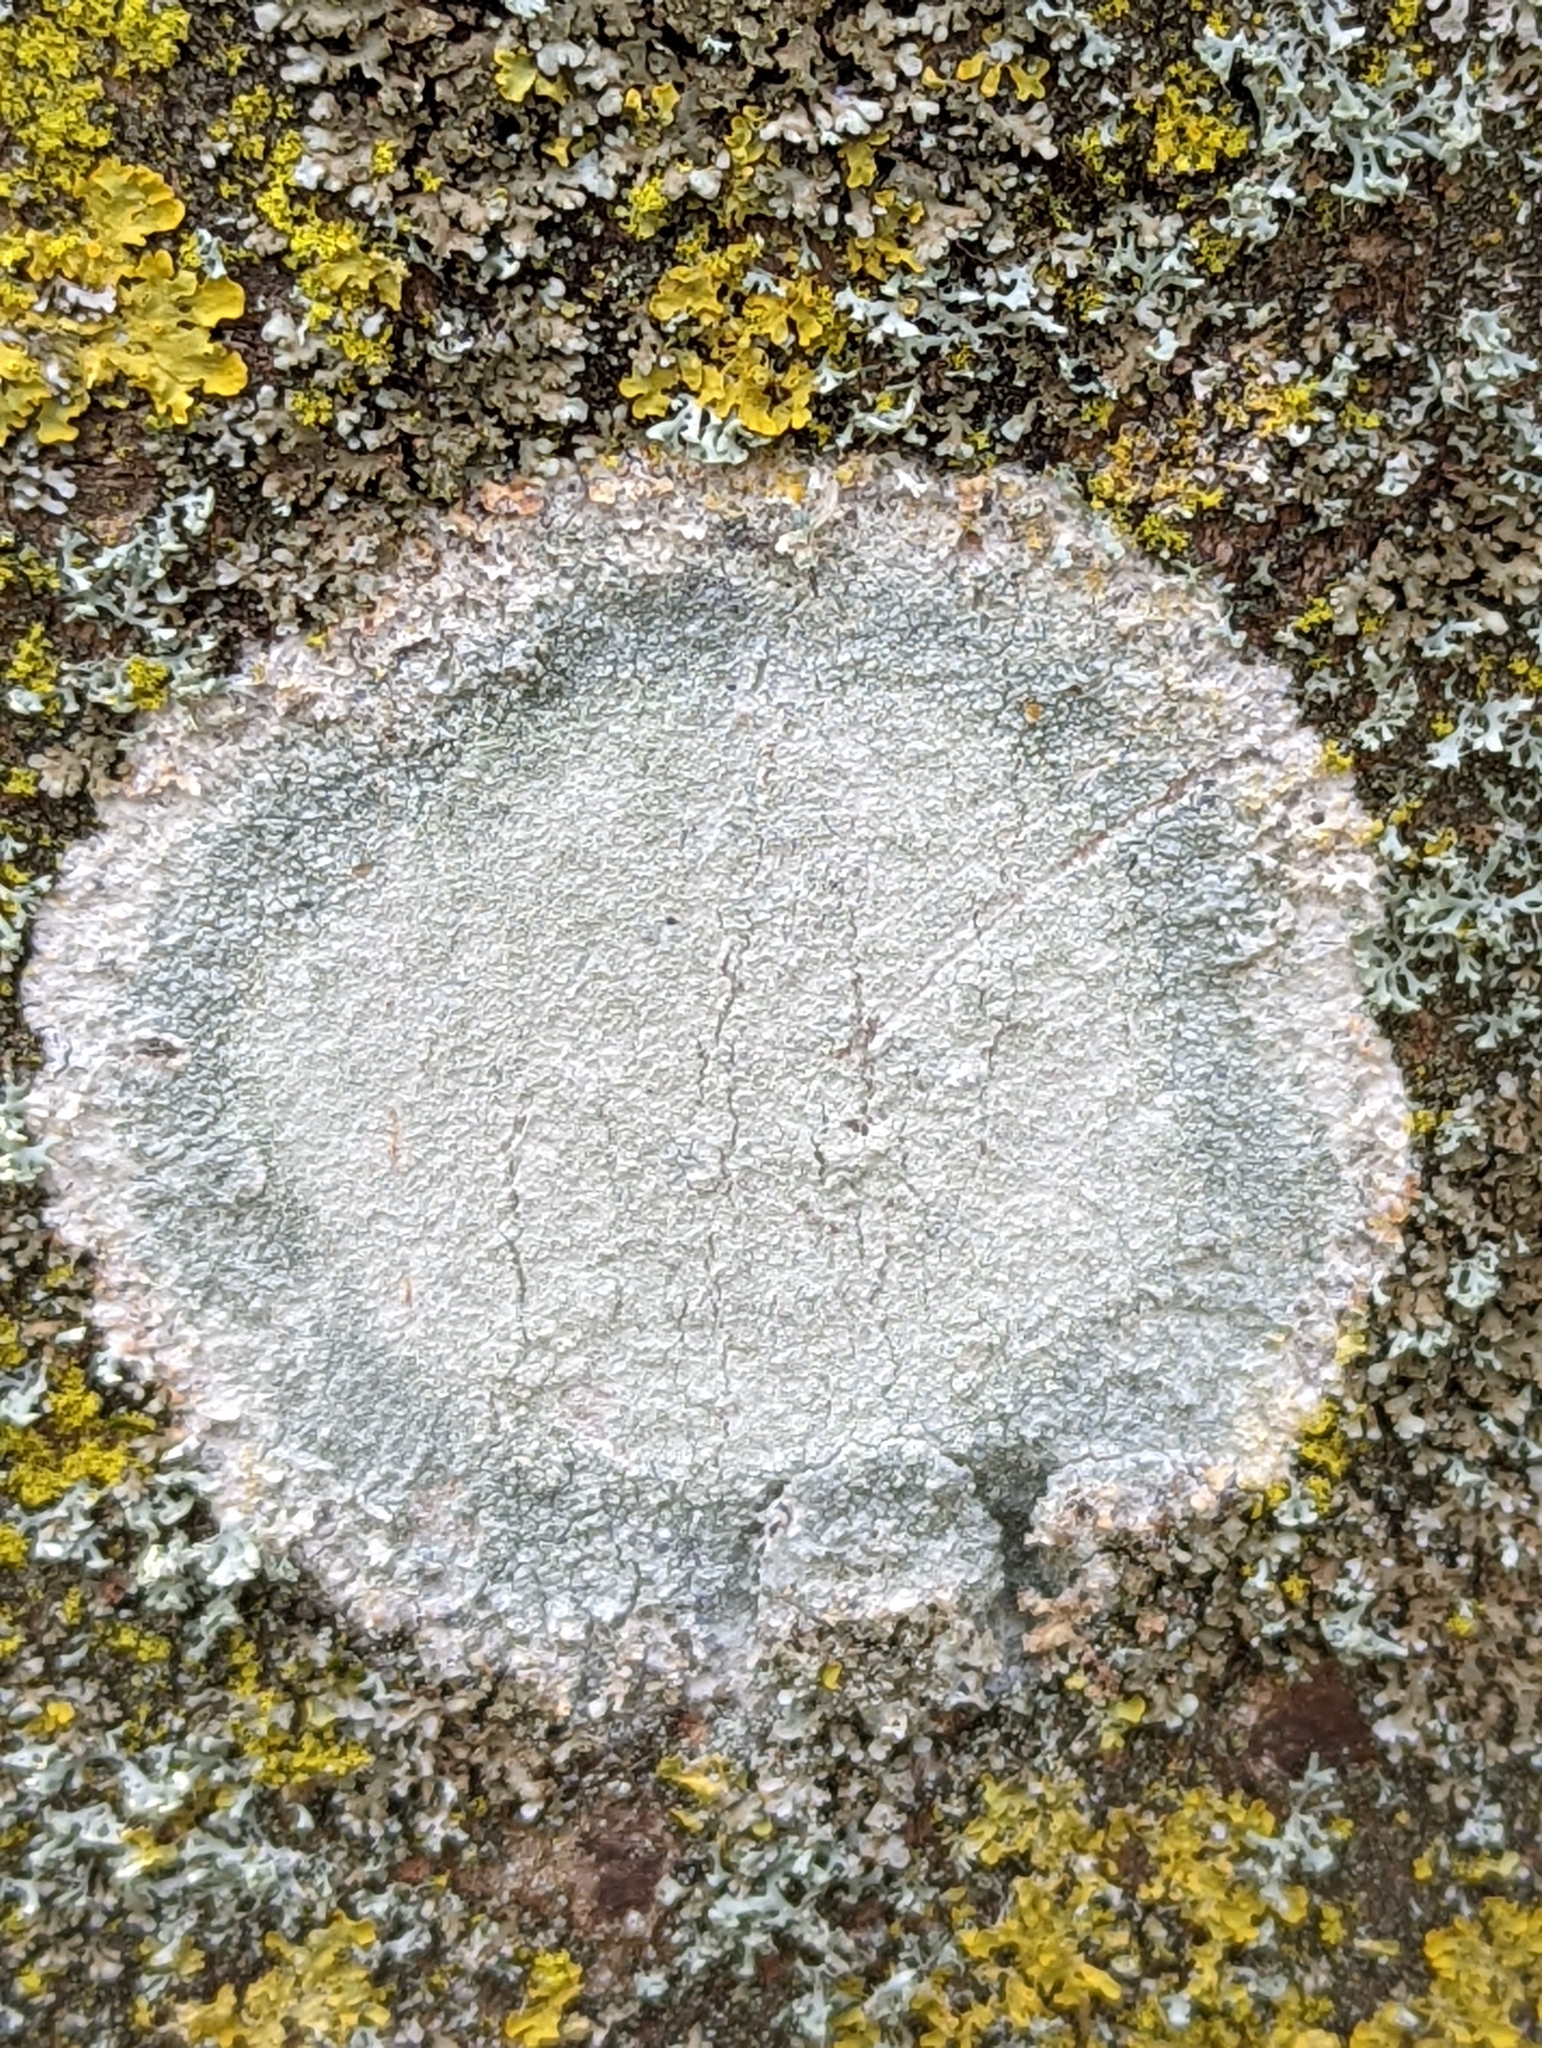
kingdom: Fungi
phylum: Ascomycota
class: Lecanoromycetes
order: Ostropales
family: Phlyctidaceae
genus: Phlyctis
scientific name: Phlyctis argena
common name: Whitewash lichen
